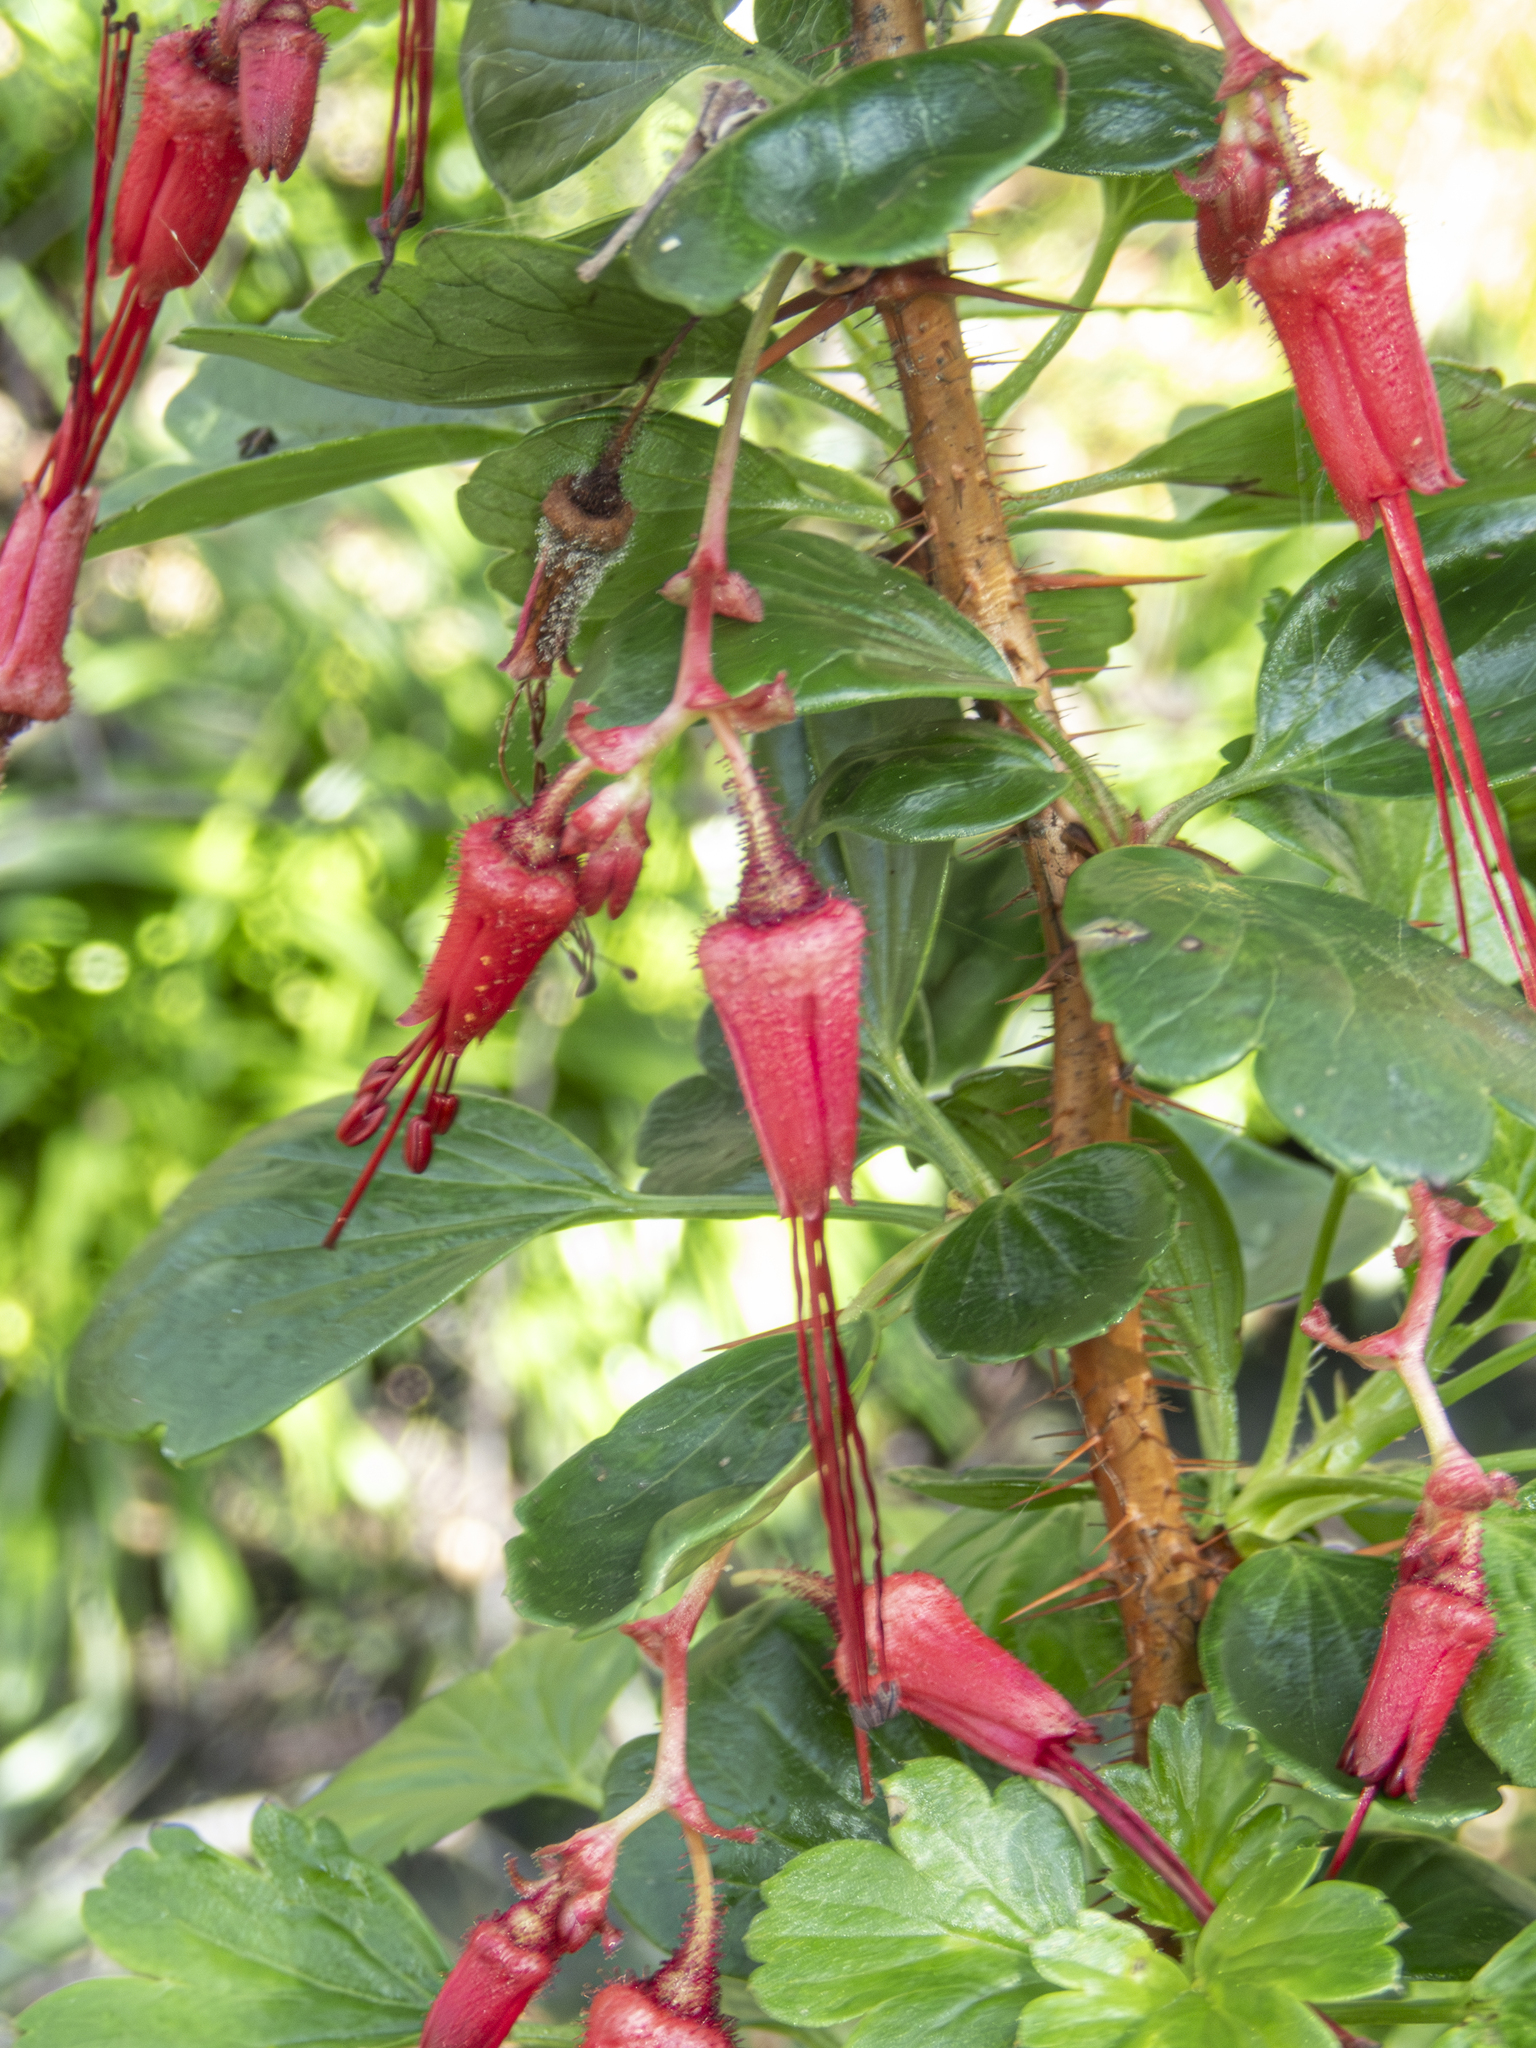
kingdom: Plantae
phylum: Tracheophyta
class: Magnoliopsida
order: Saxifragales
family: Grossulariaceae
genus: Ribes
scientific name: Ribes speciosum
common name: Fuchsia-flower gooseberry
